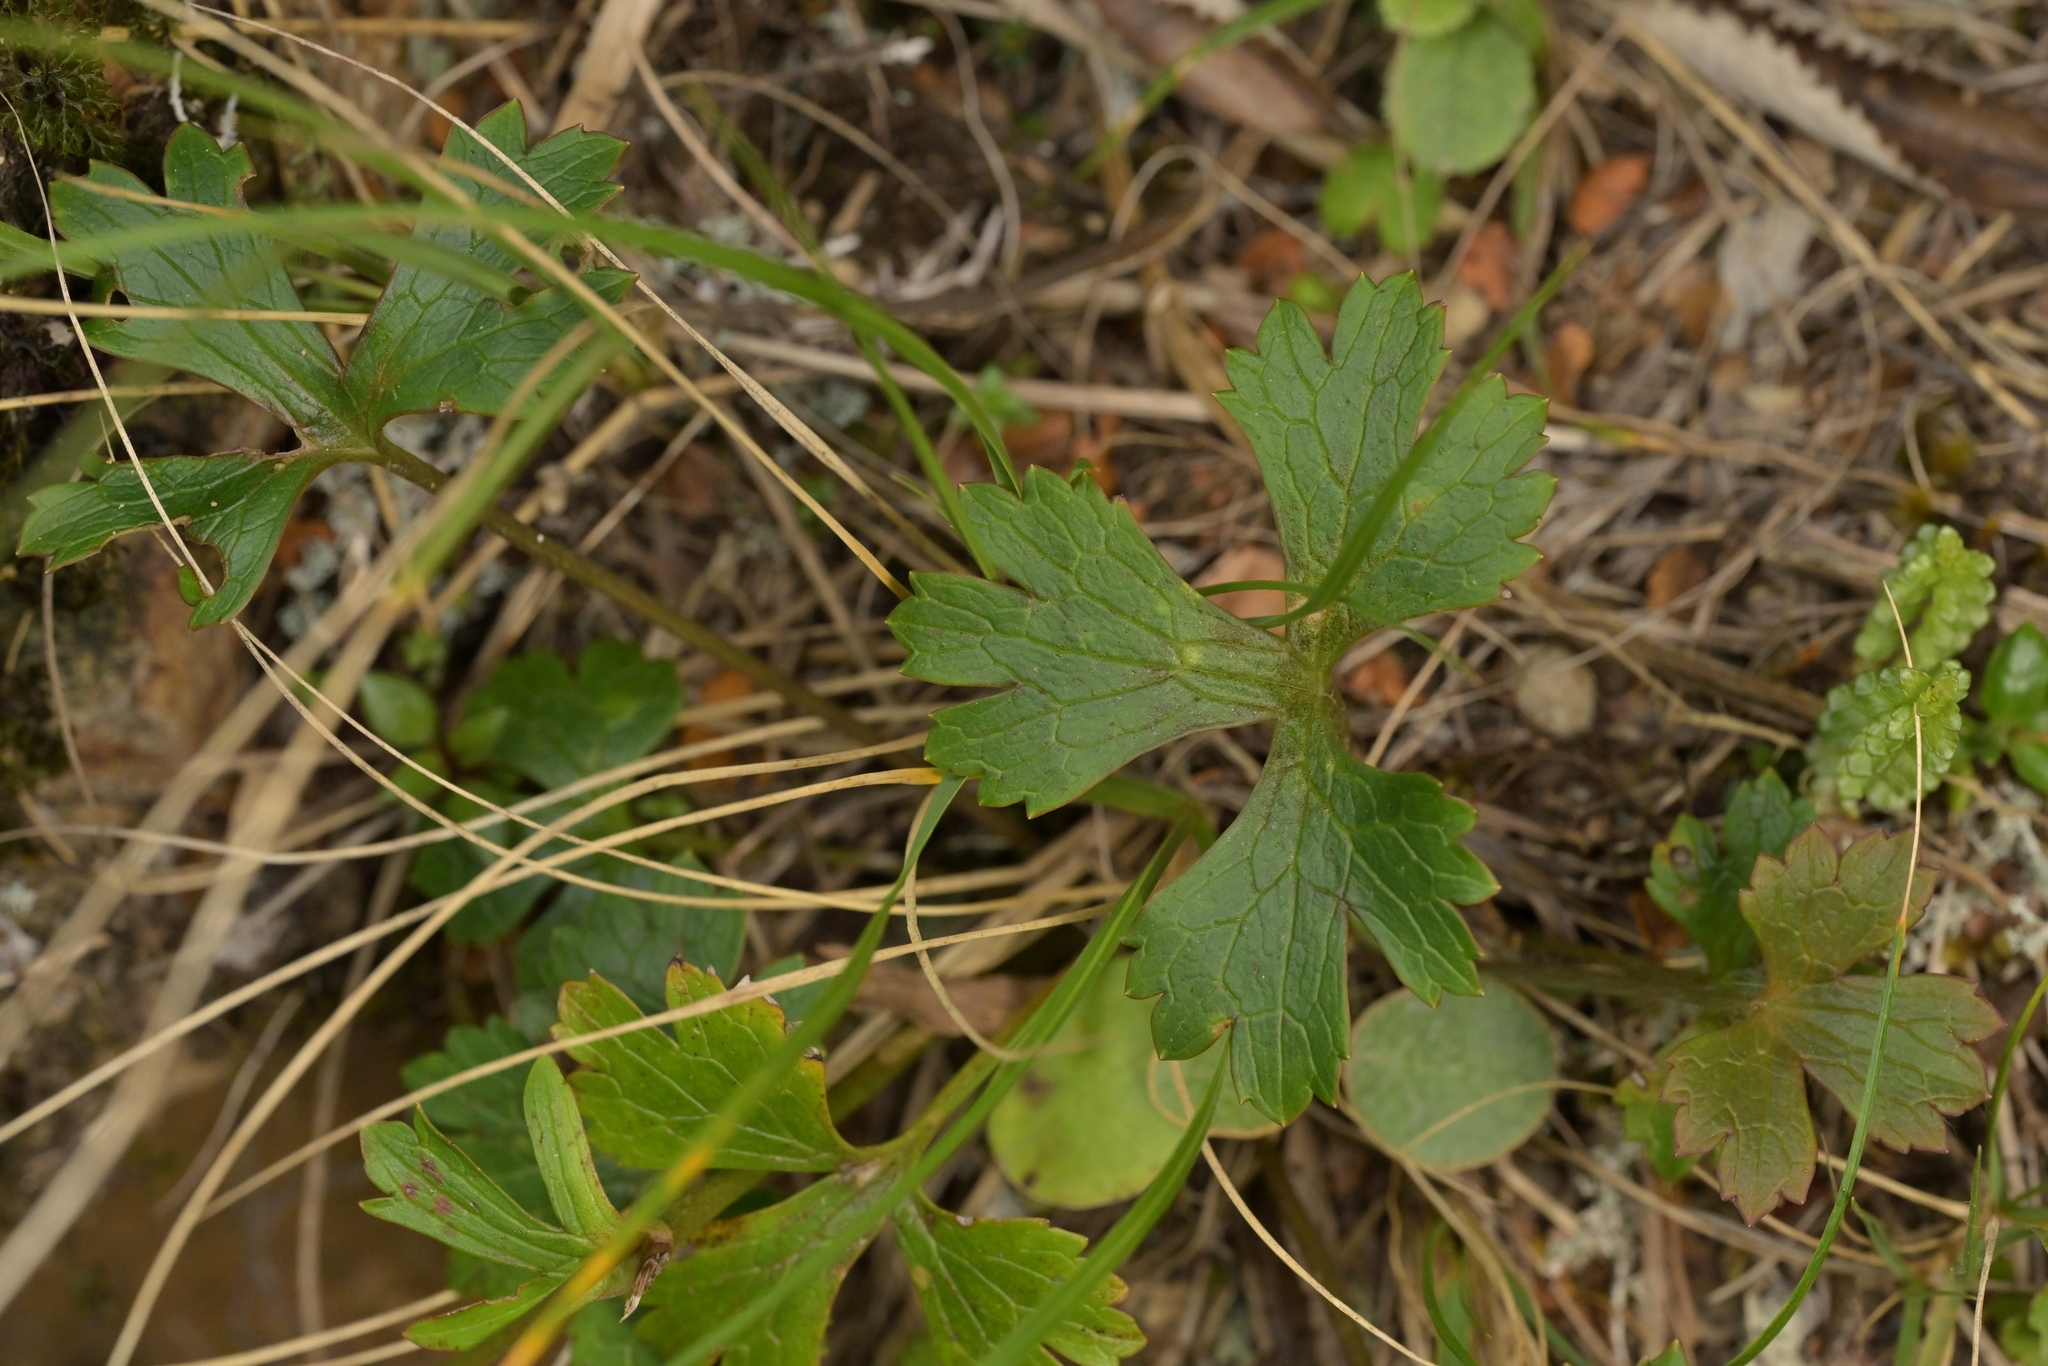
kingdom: Plantae
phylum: Tracheophyta
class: Magnoliopsida
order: Ranunculales
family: Ranunculaceae
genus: Ranunculus
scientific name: Ranunculus verticillatus
